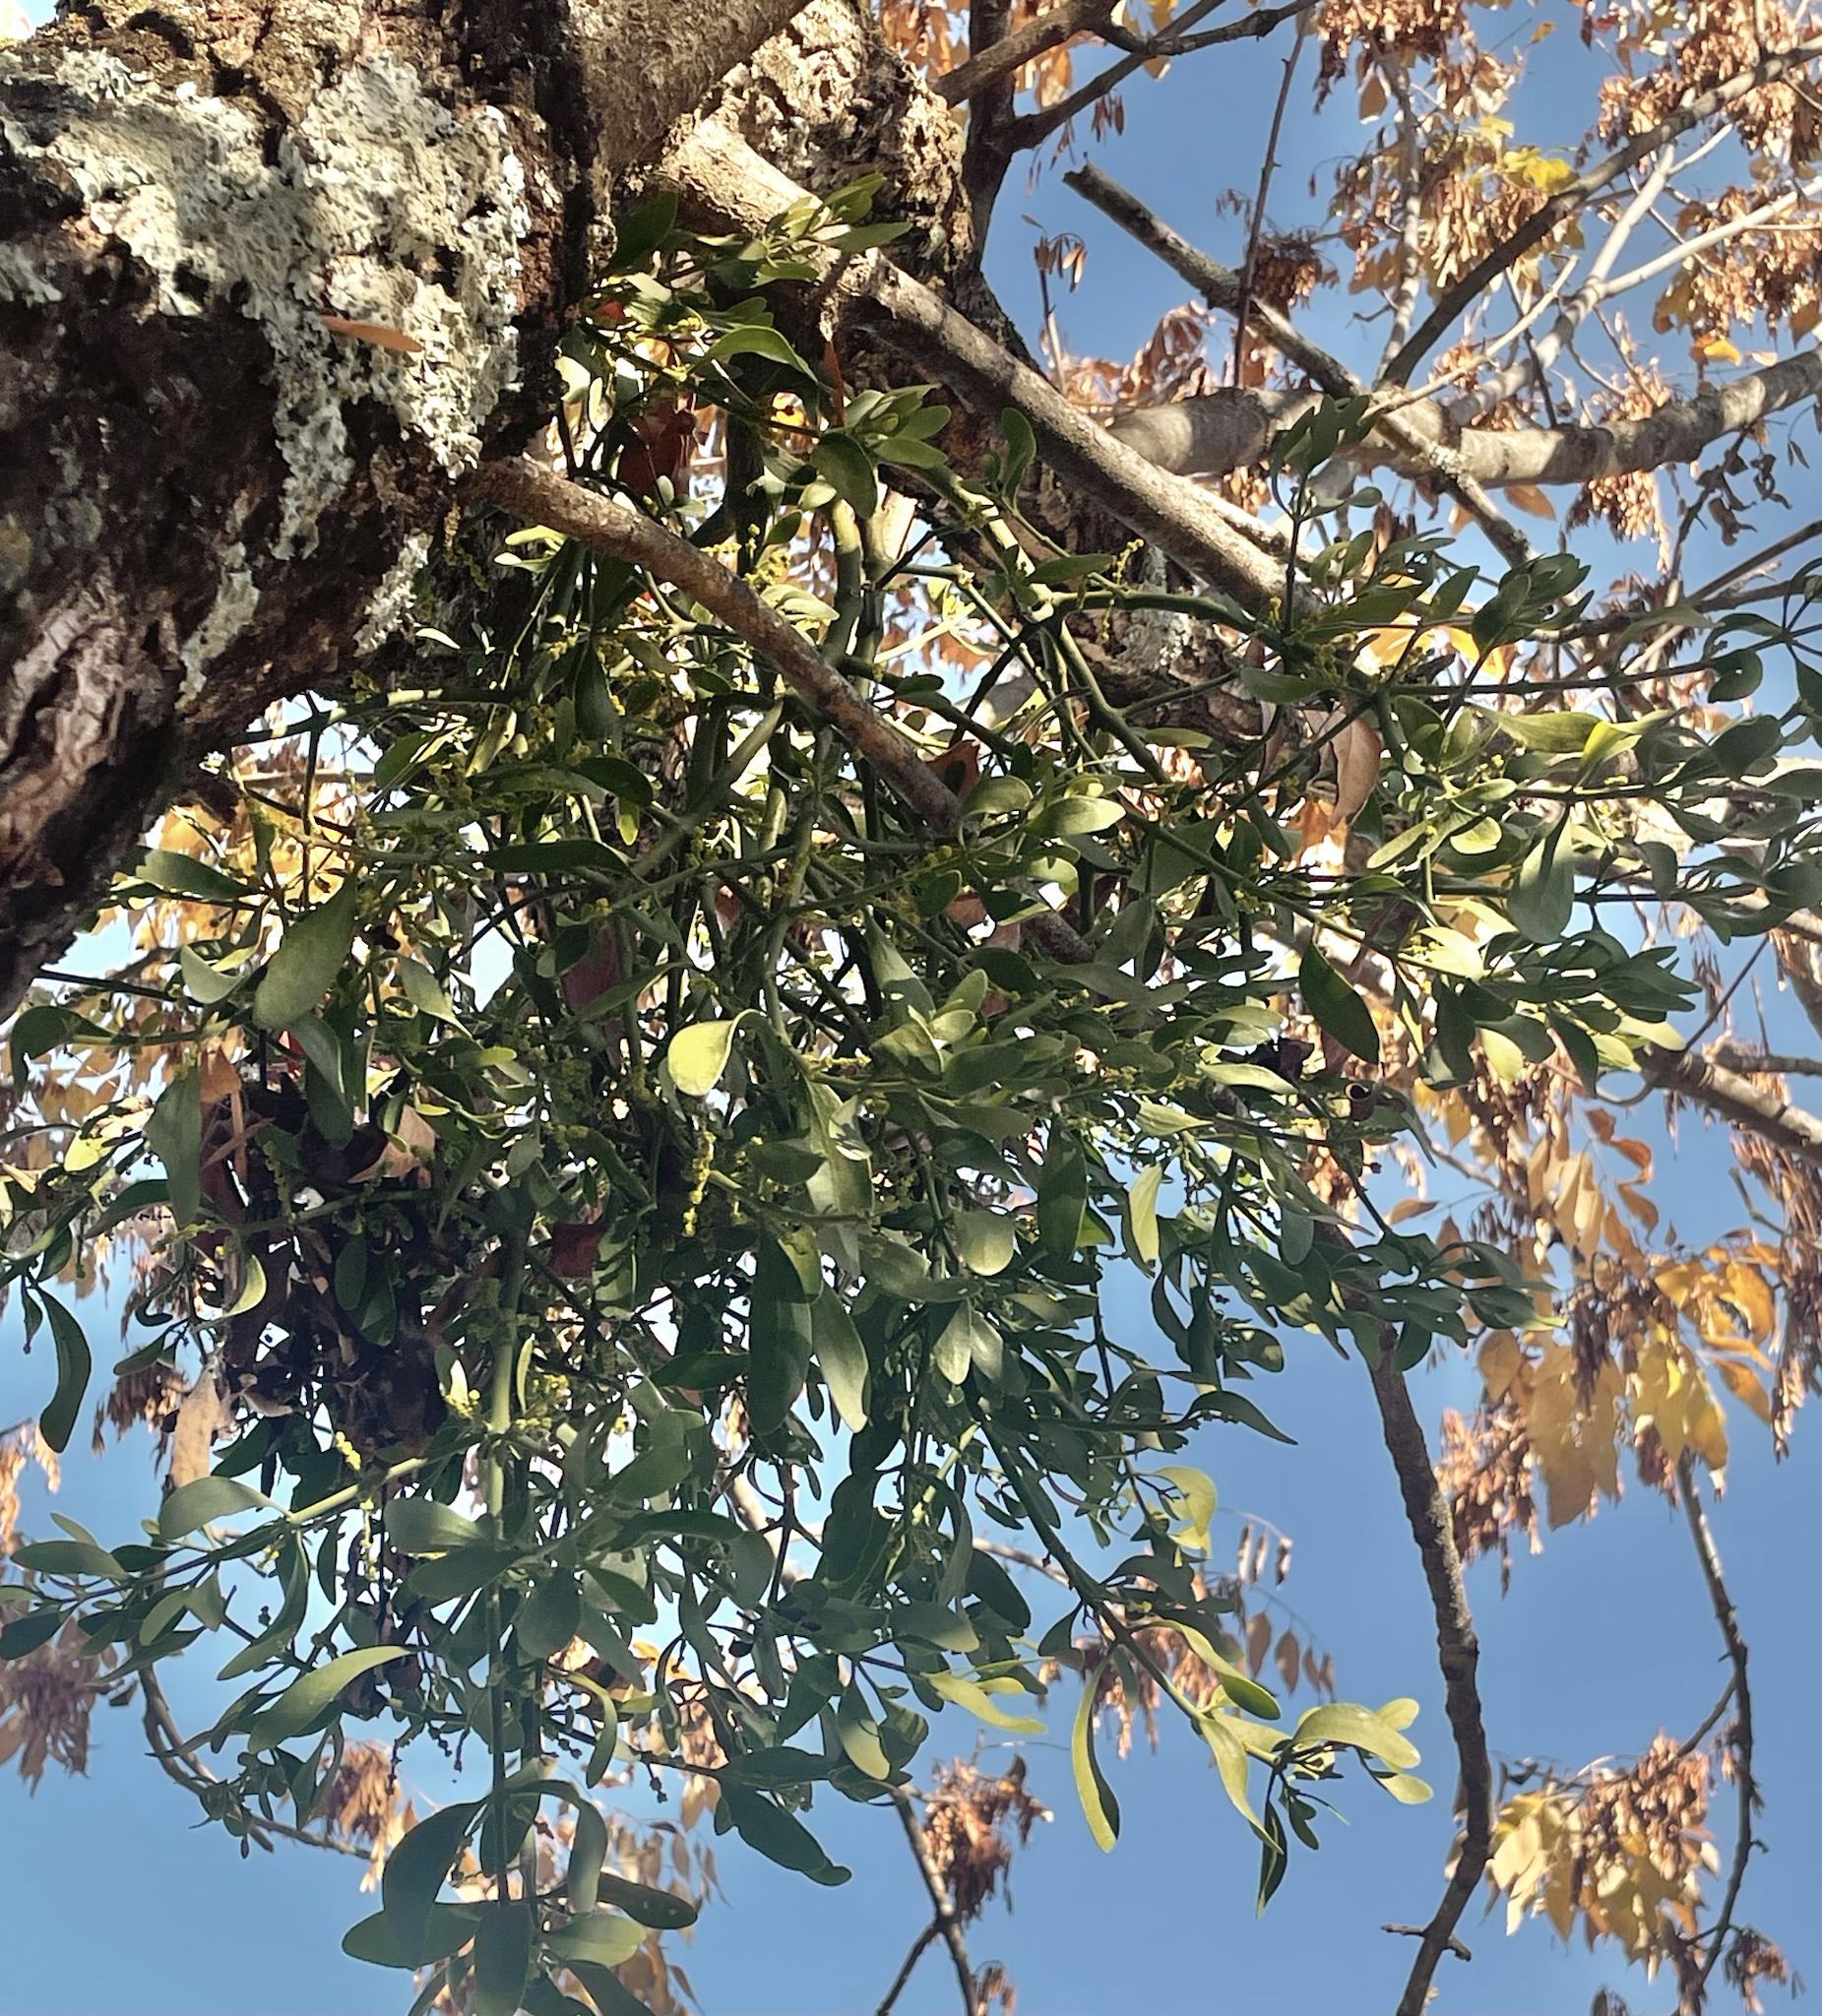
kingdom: Plantae
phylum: Tracheophyta
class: Magnoliopsida
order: Santalales
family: Viscaceae
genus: Phoradendron
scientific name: Phoradendron leucarpum
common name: Pacific mistletoe
